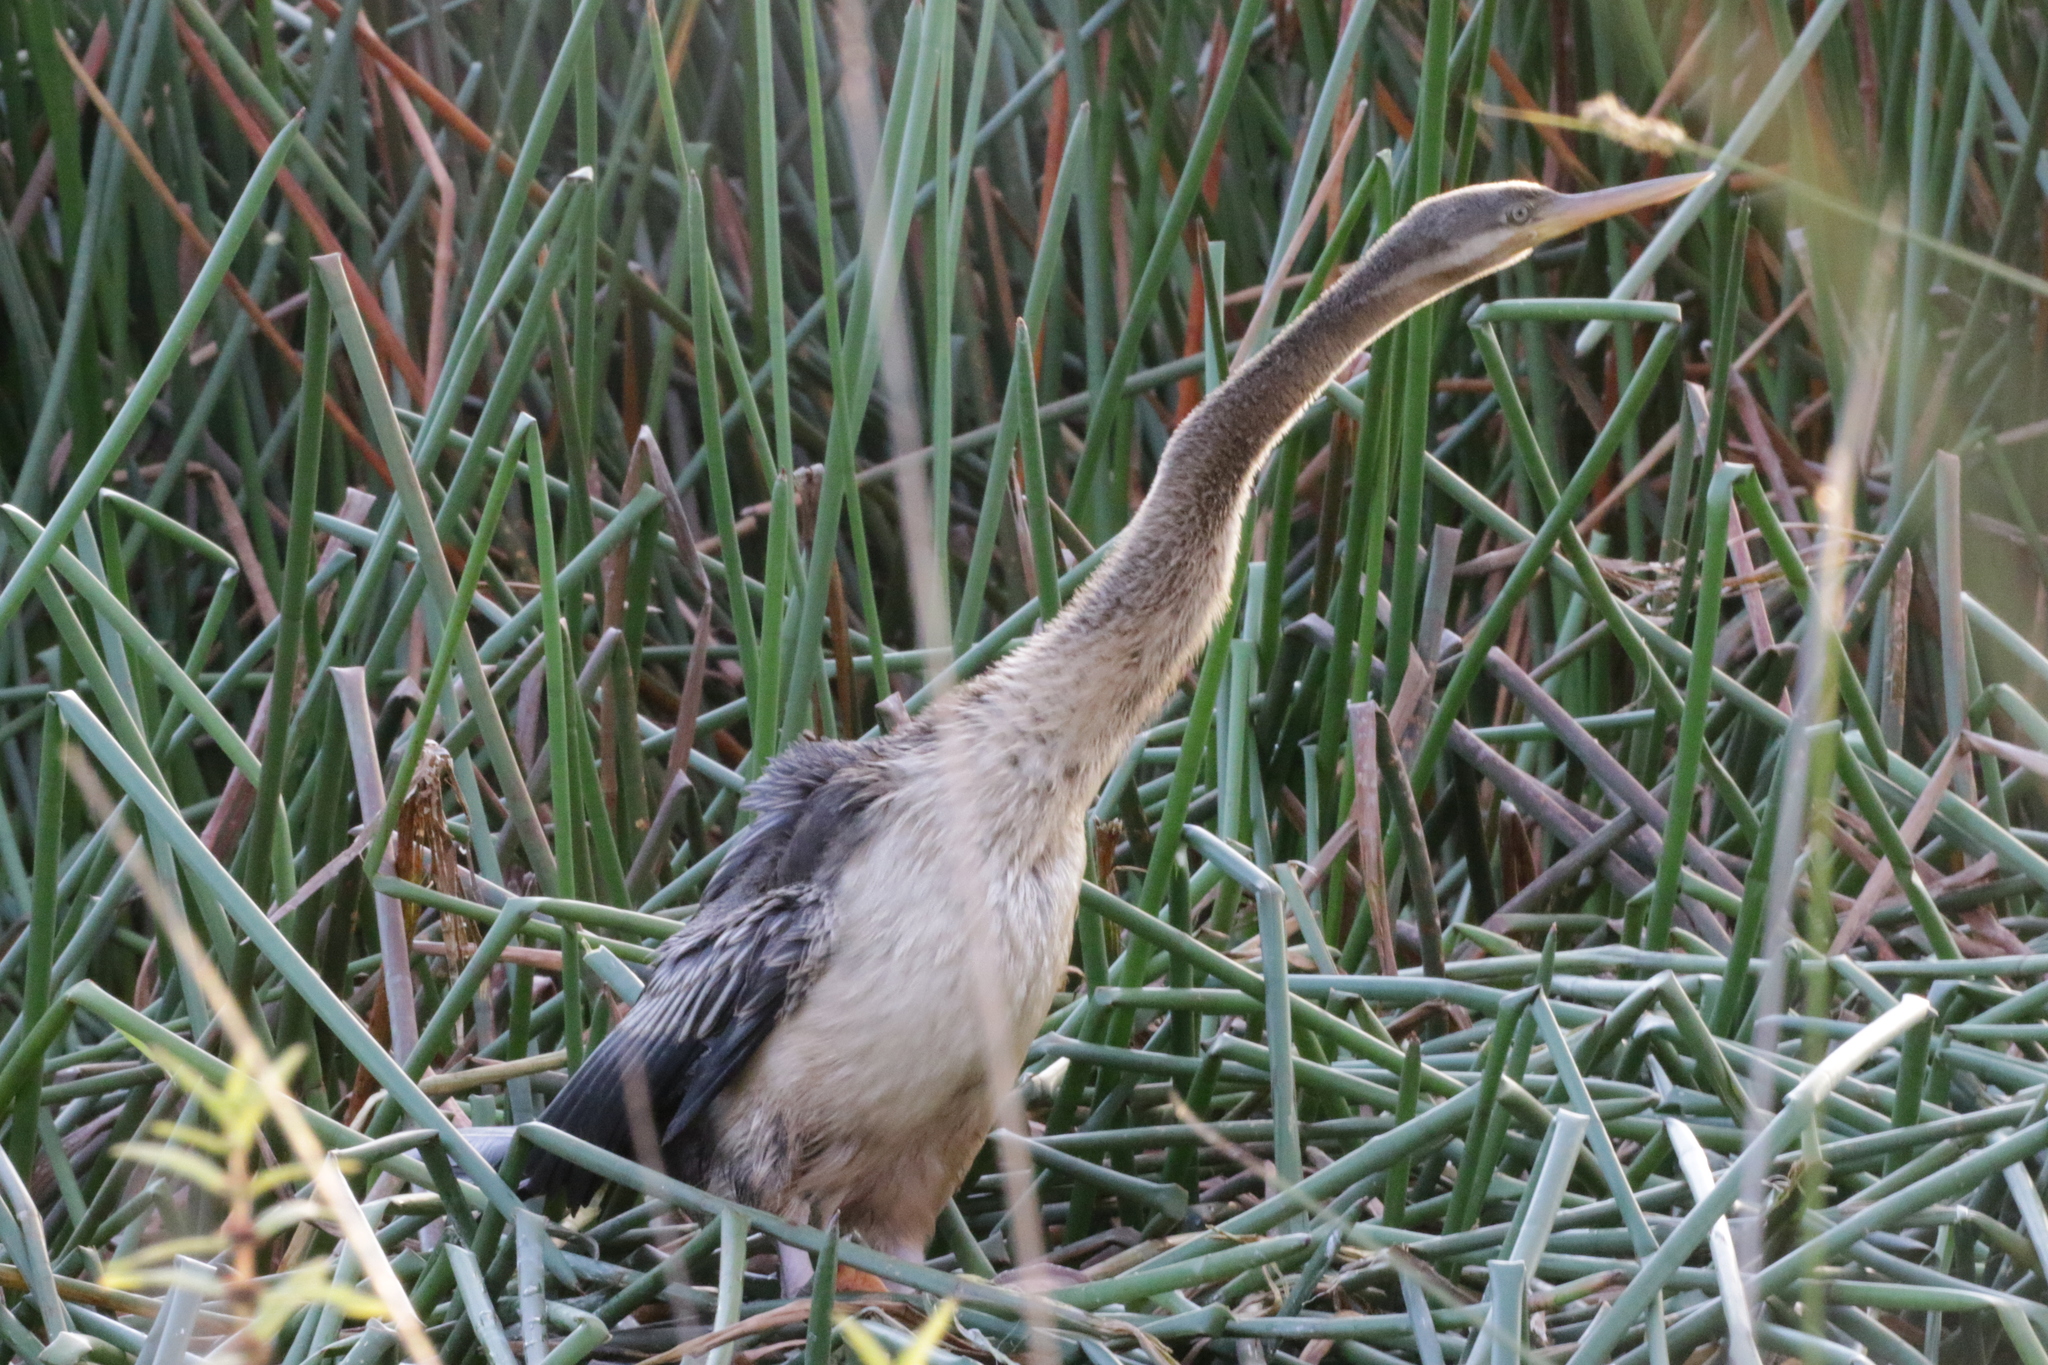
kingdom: Animalia
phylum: Chordata
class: Aves
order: Suliformes
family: Anhingidae
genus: Anhinga
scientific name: Anhinga novaehollandiae
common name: Australasian darter
